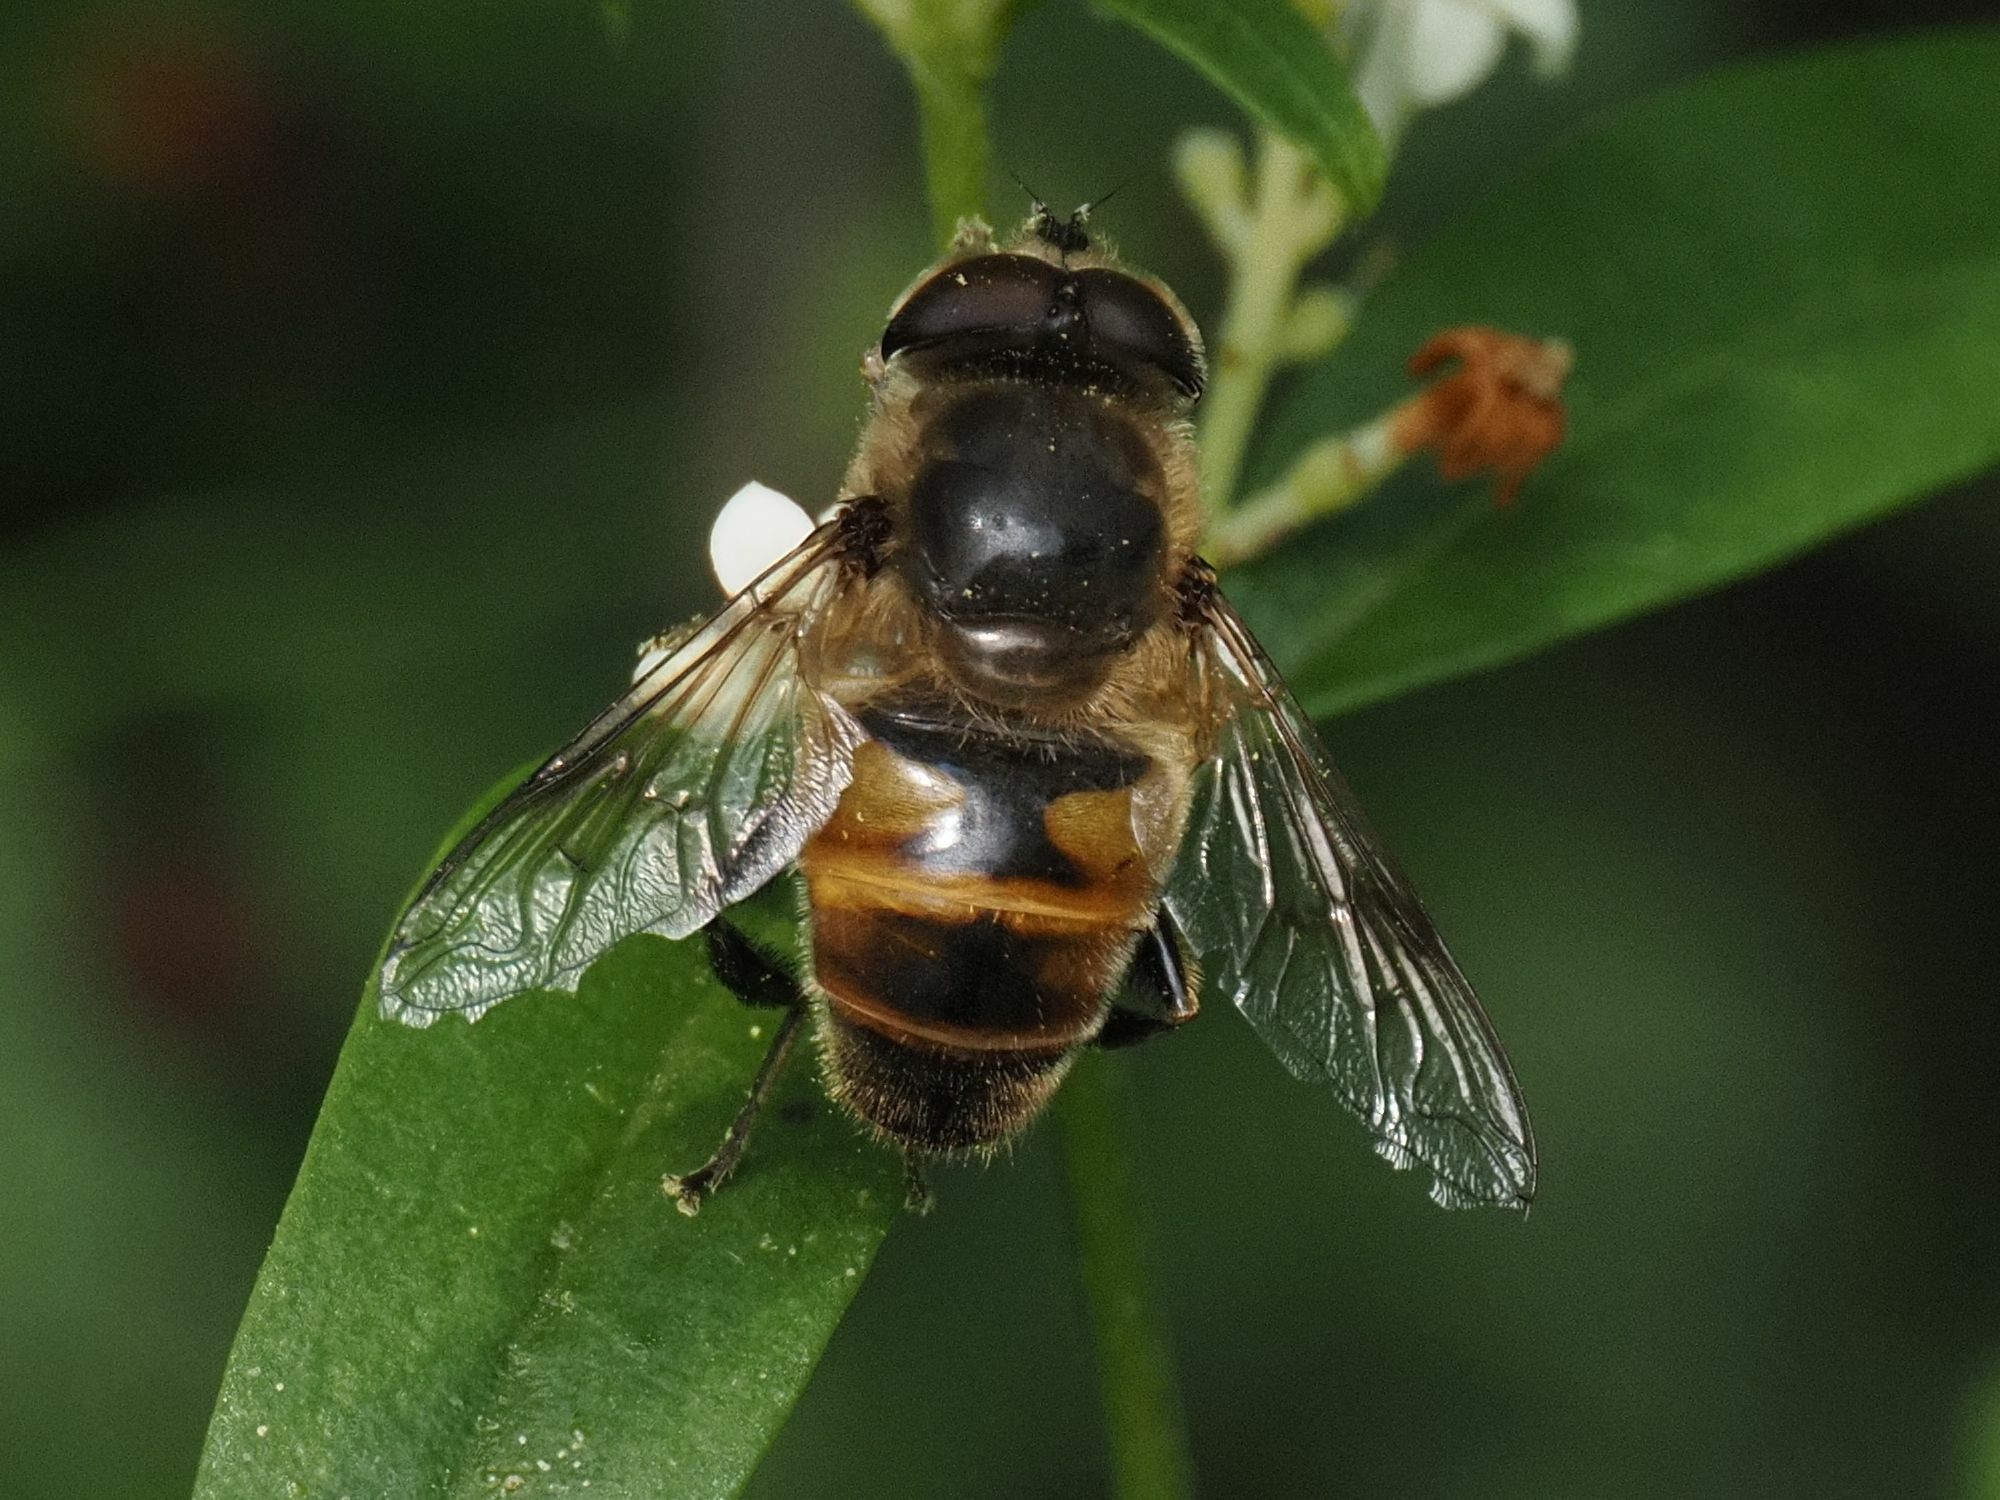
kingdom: Animalia
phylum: Arthropoda
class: Insecta
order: Diptera
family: Syrphidae
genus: Eristalis
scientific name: Eristalis tenax
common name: Drone fly
